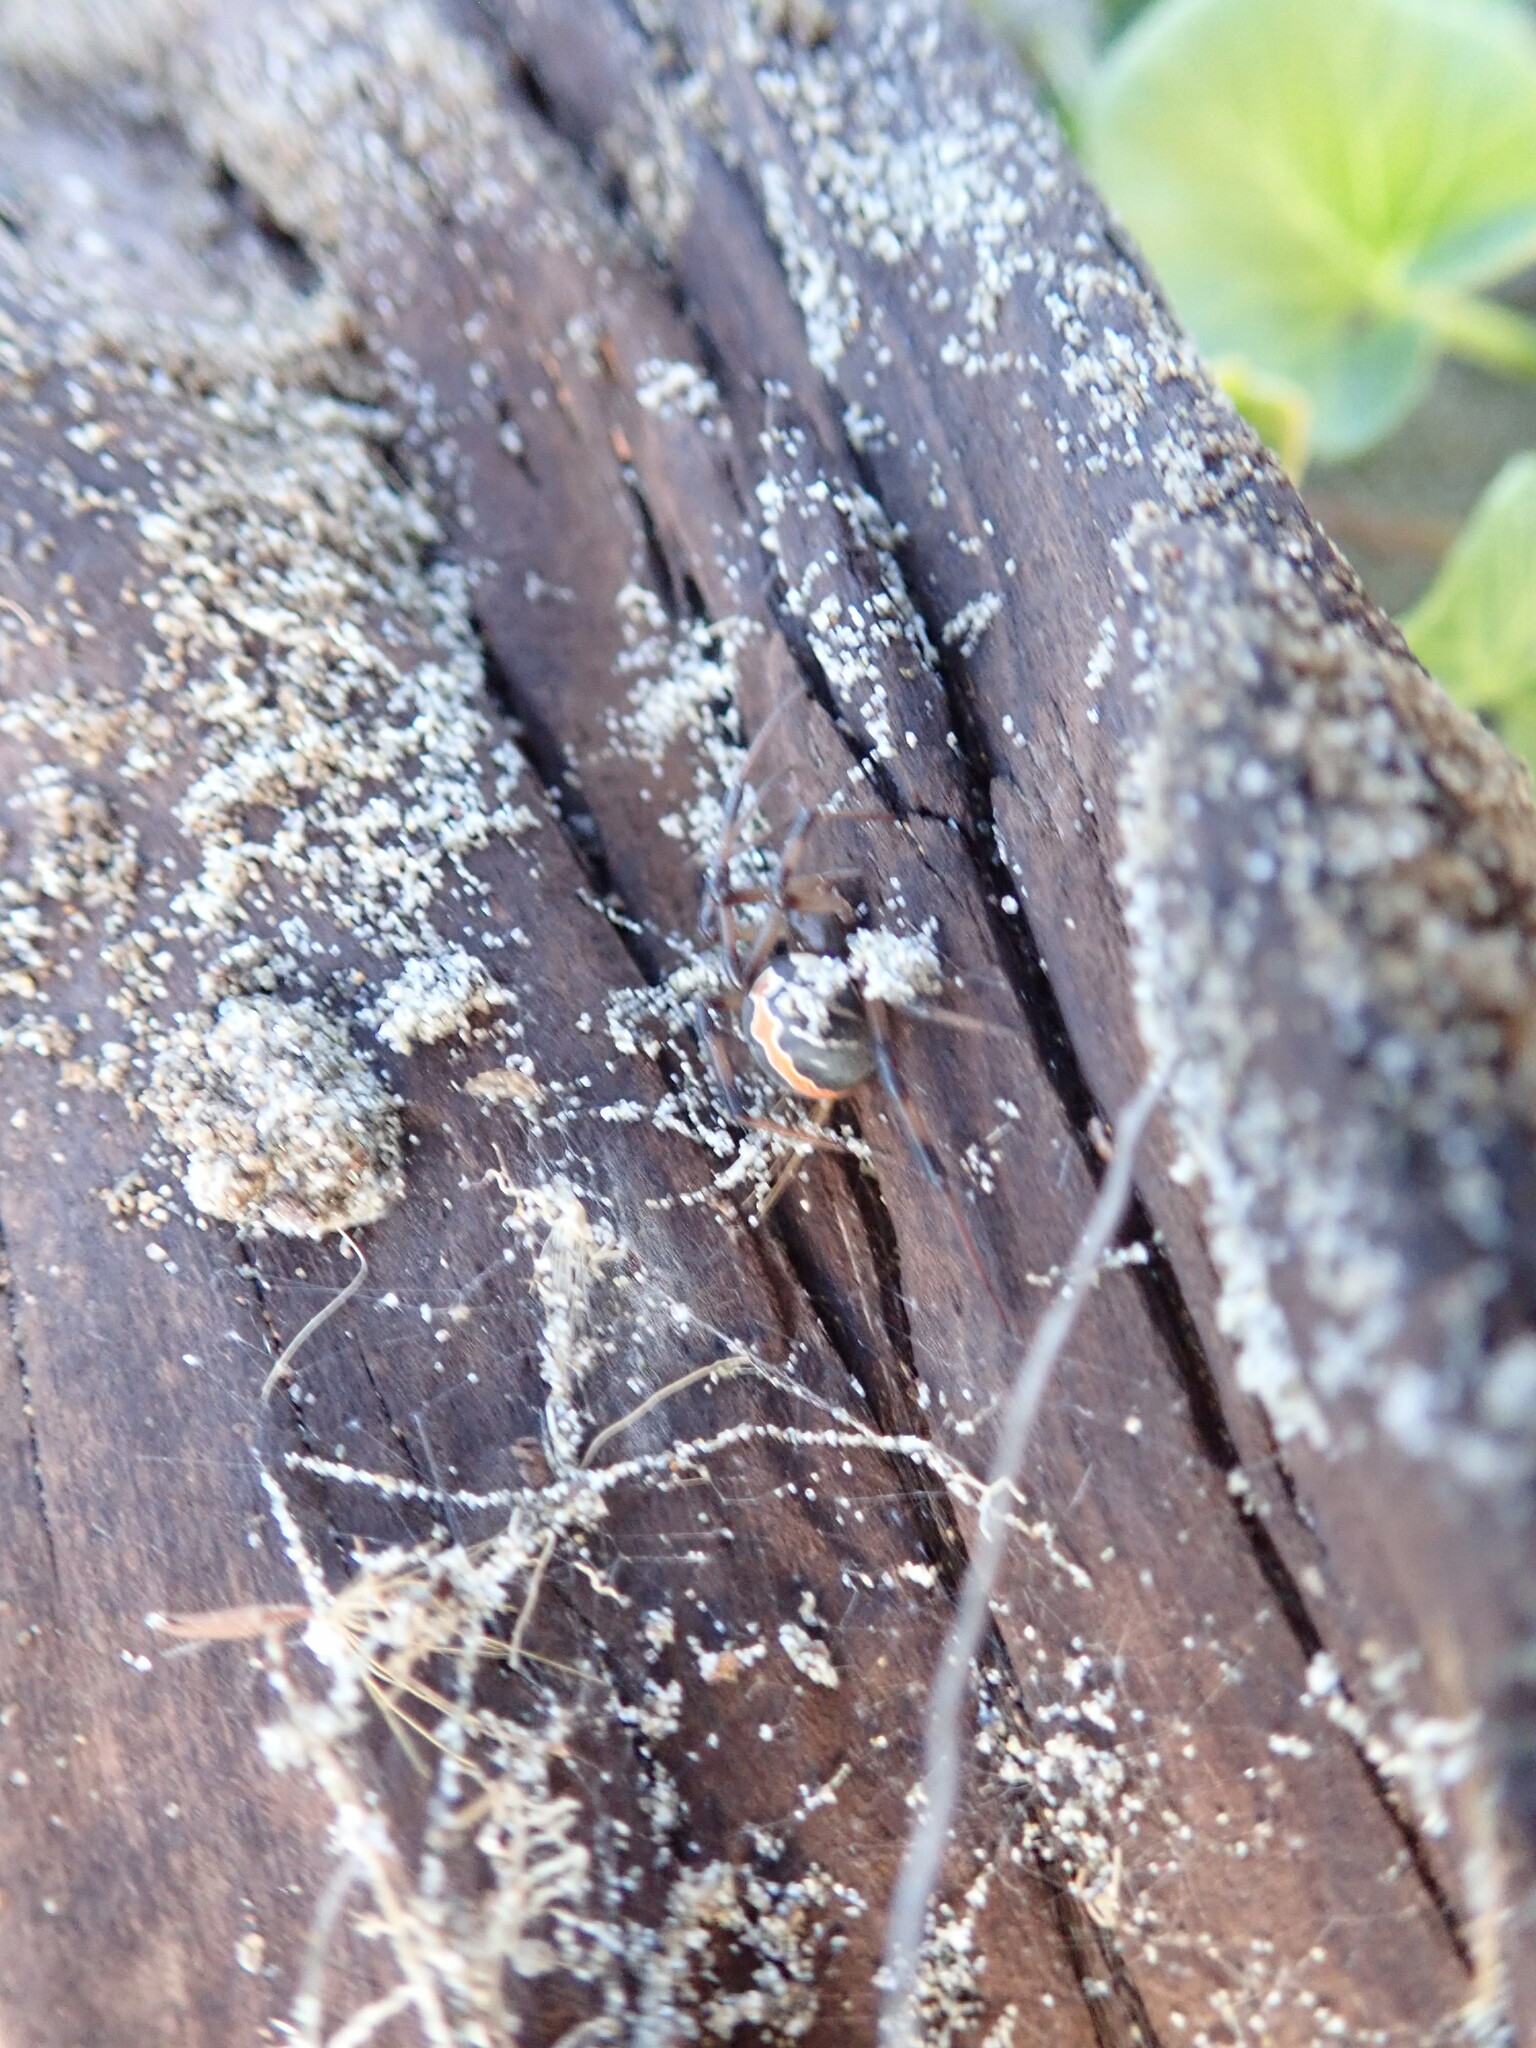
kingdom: Animalia
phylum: Arthropoda
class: Arachnida
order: Araneae
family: Theridiidae
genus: Latrodectus
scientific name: Latrodectus katipo
